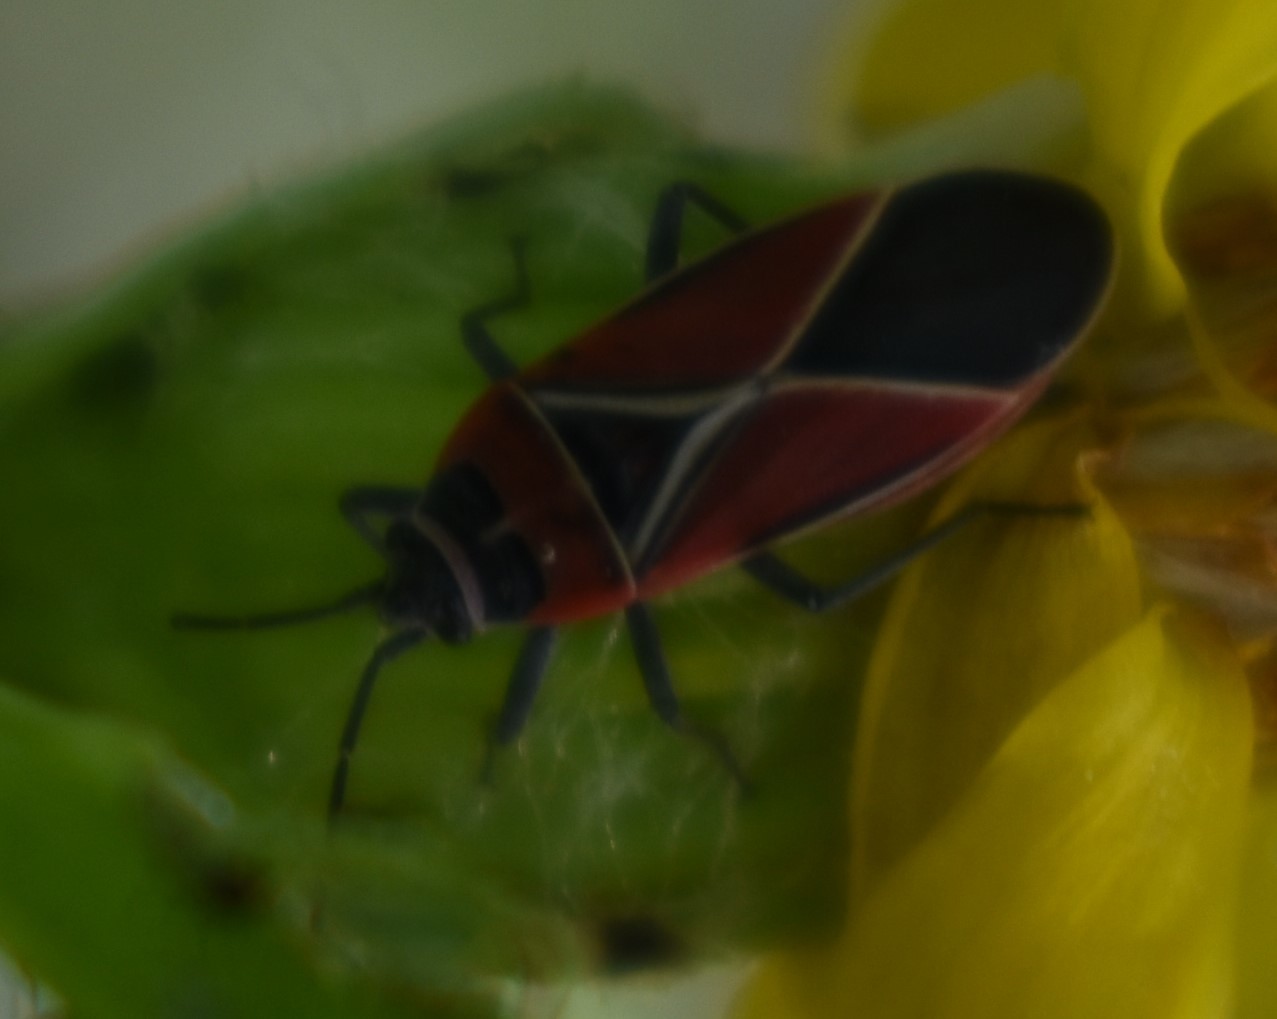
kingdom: Animalia
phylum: Arthropoda
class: Insecta
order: Hemiptera
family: Lygaeidae
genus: Neacoryphus
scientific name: Neacoryphus bicrucis
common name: Lygaeid bug
